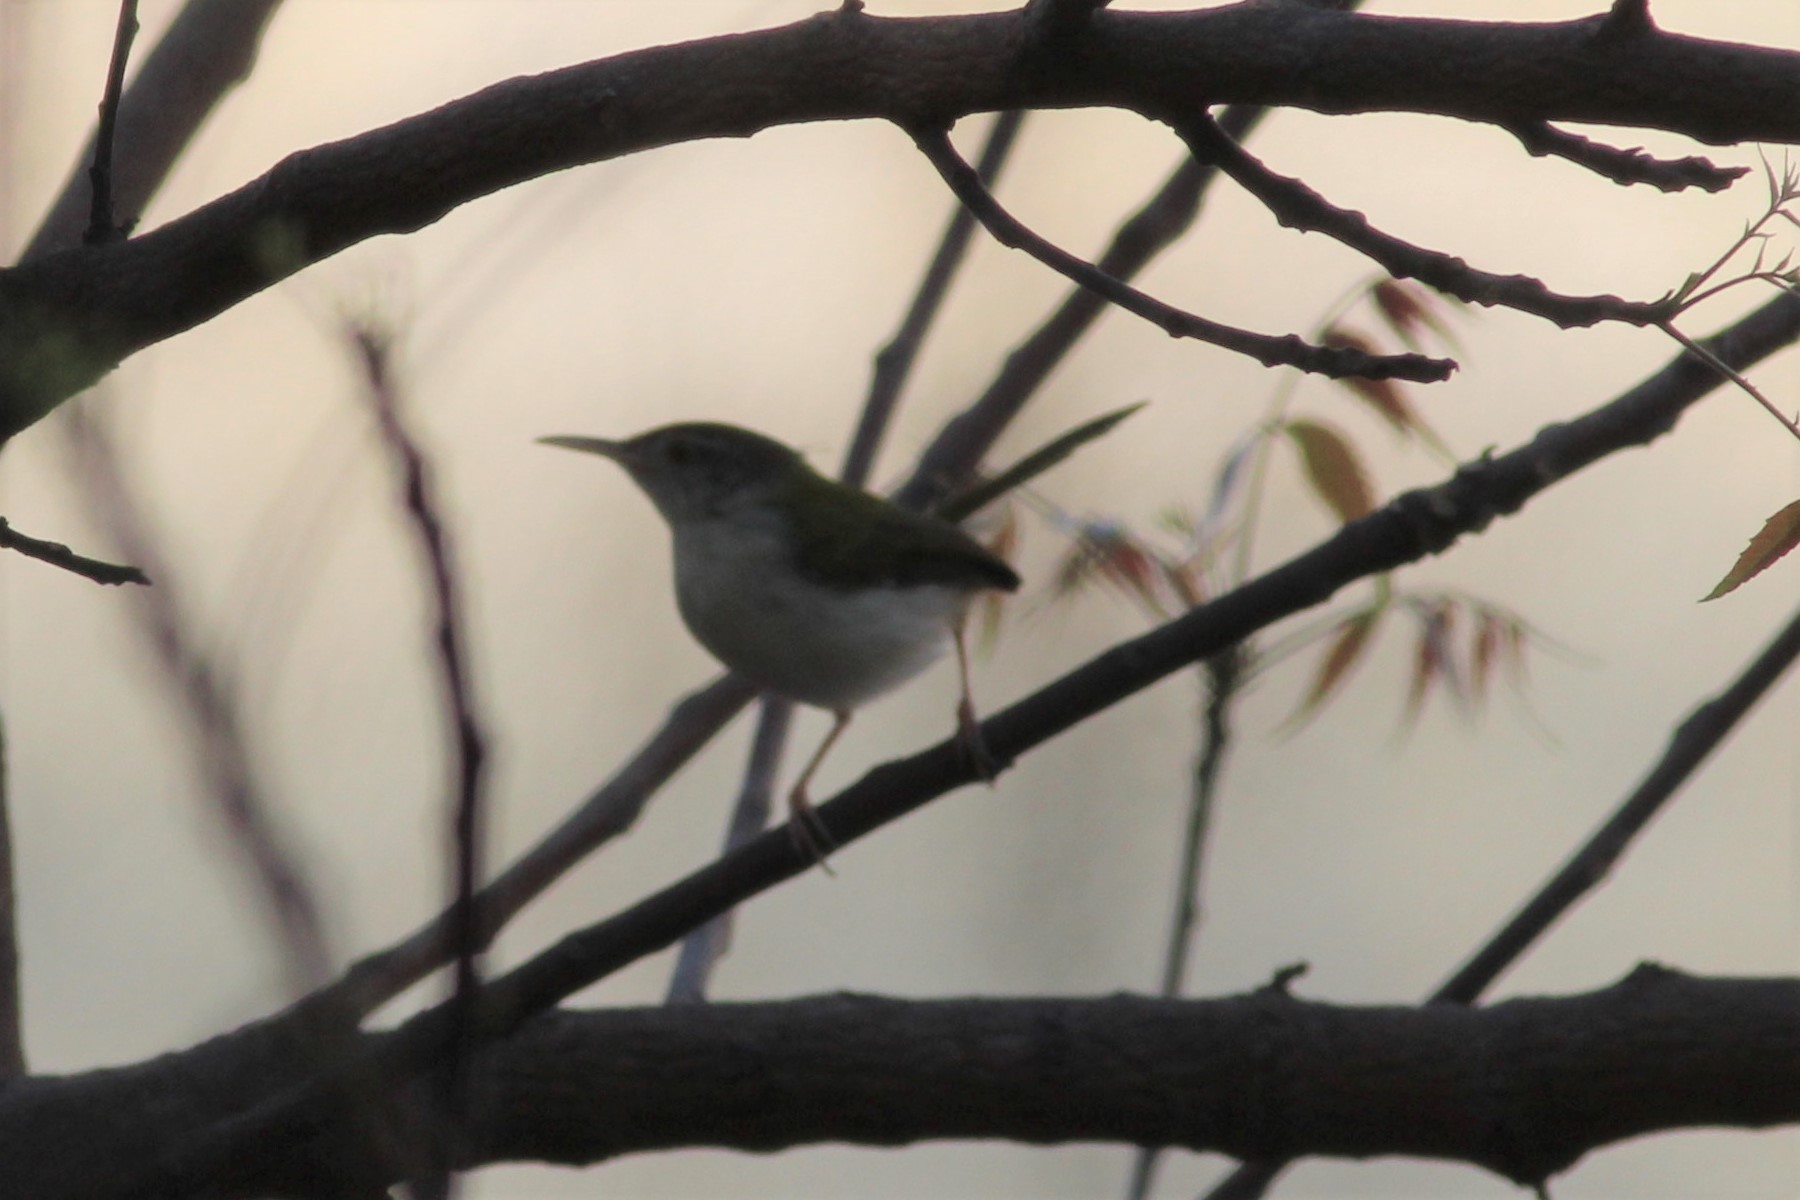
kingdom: Animalia
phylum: Chordata
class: Aves
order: Passeriformes
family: Cisticolidae
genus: Orthotomus
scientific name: Orthotomus sutorius
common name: Common tailorbird
